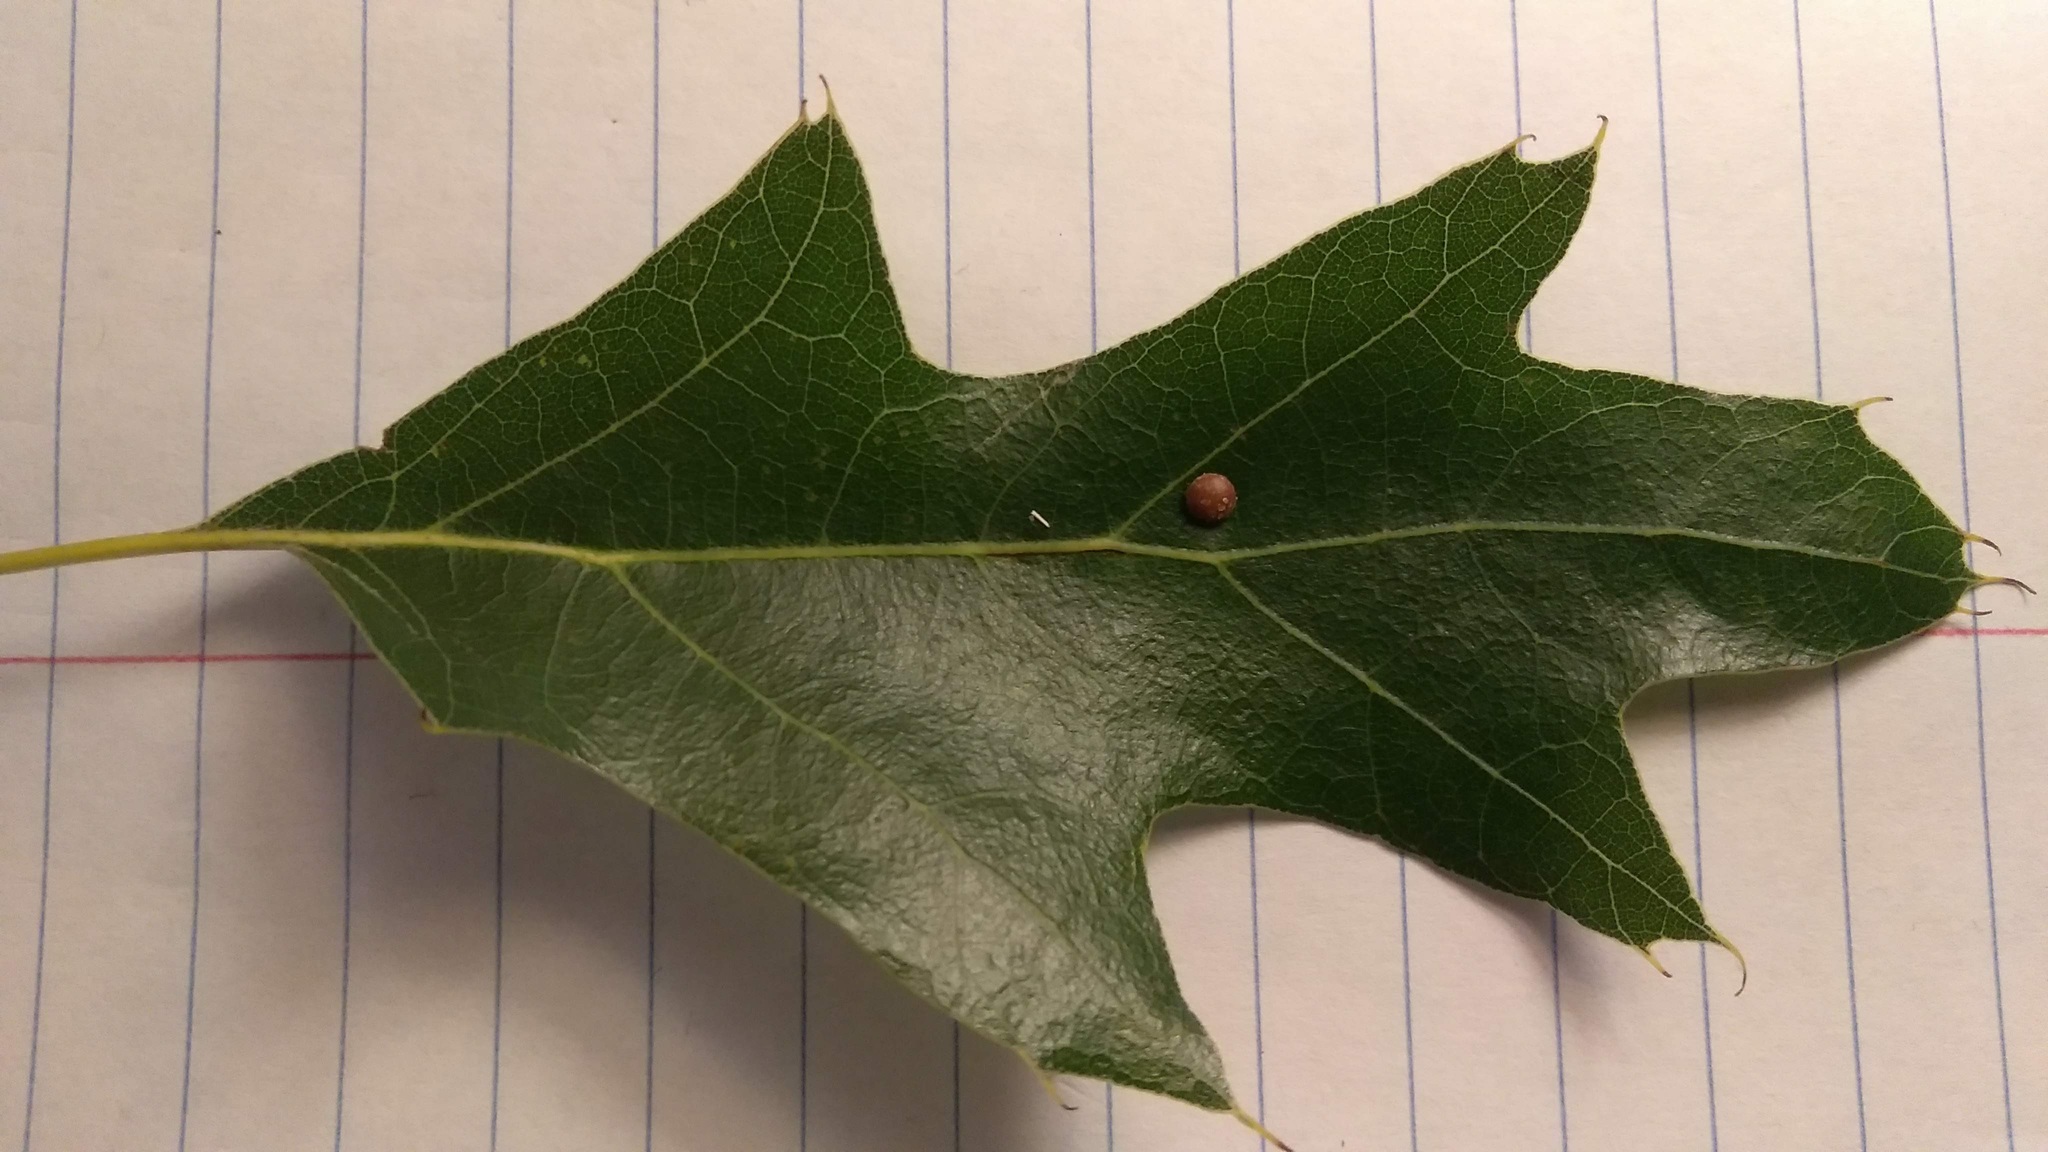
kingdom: Animalia
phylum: Arthropoda
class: Insecta
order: Diptera
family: Cecidomyiidae
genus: Polystepha
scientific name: Polystepha pilulae
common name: Oak leaf gall midge
